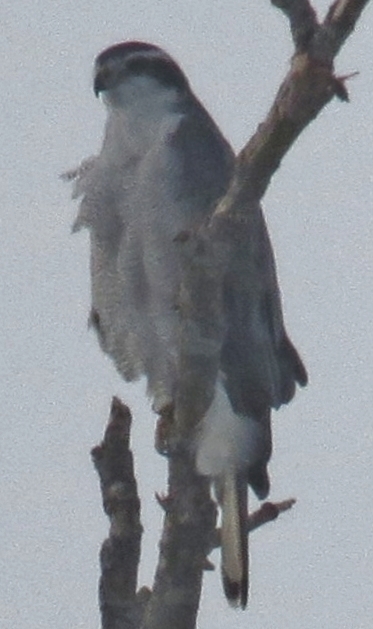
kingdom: Animalia
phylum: Chordata
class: Aves
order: Accipitriformes
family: Accipitridae
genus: Accipiter
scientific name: Accipiter gentilis
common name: Northern goshawk
